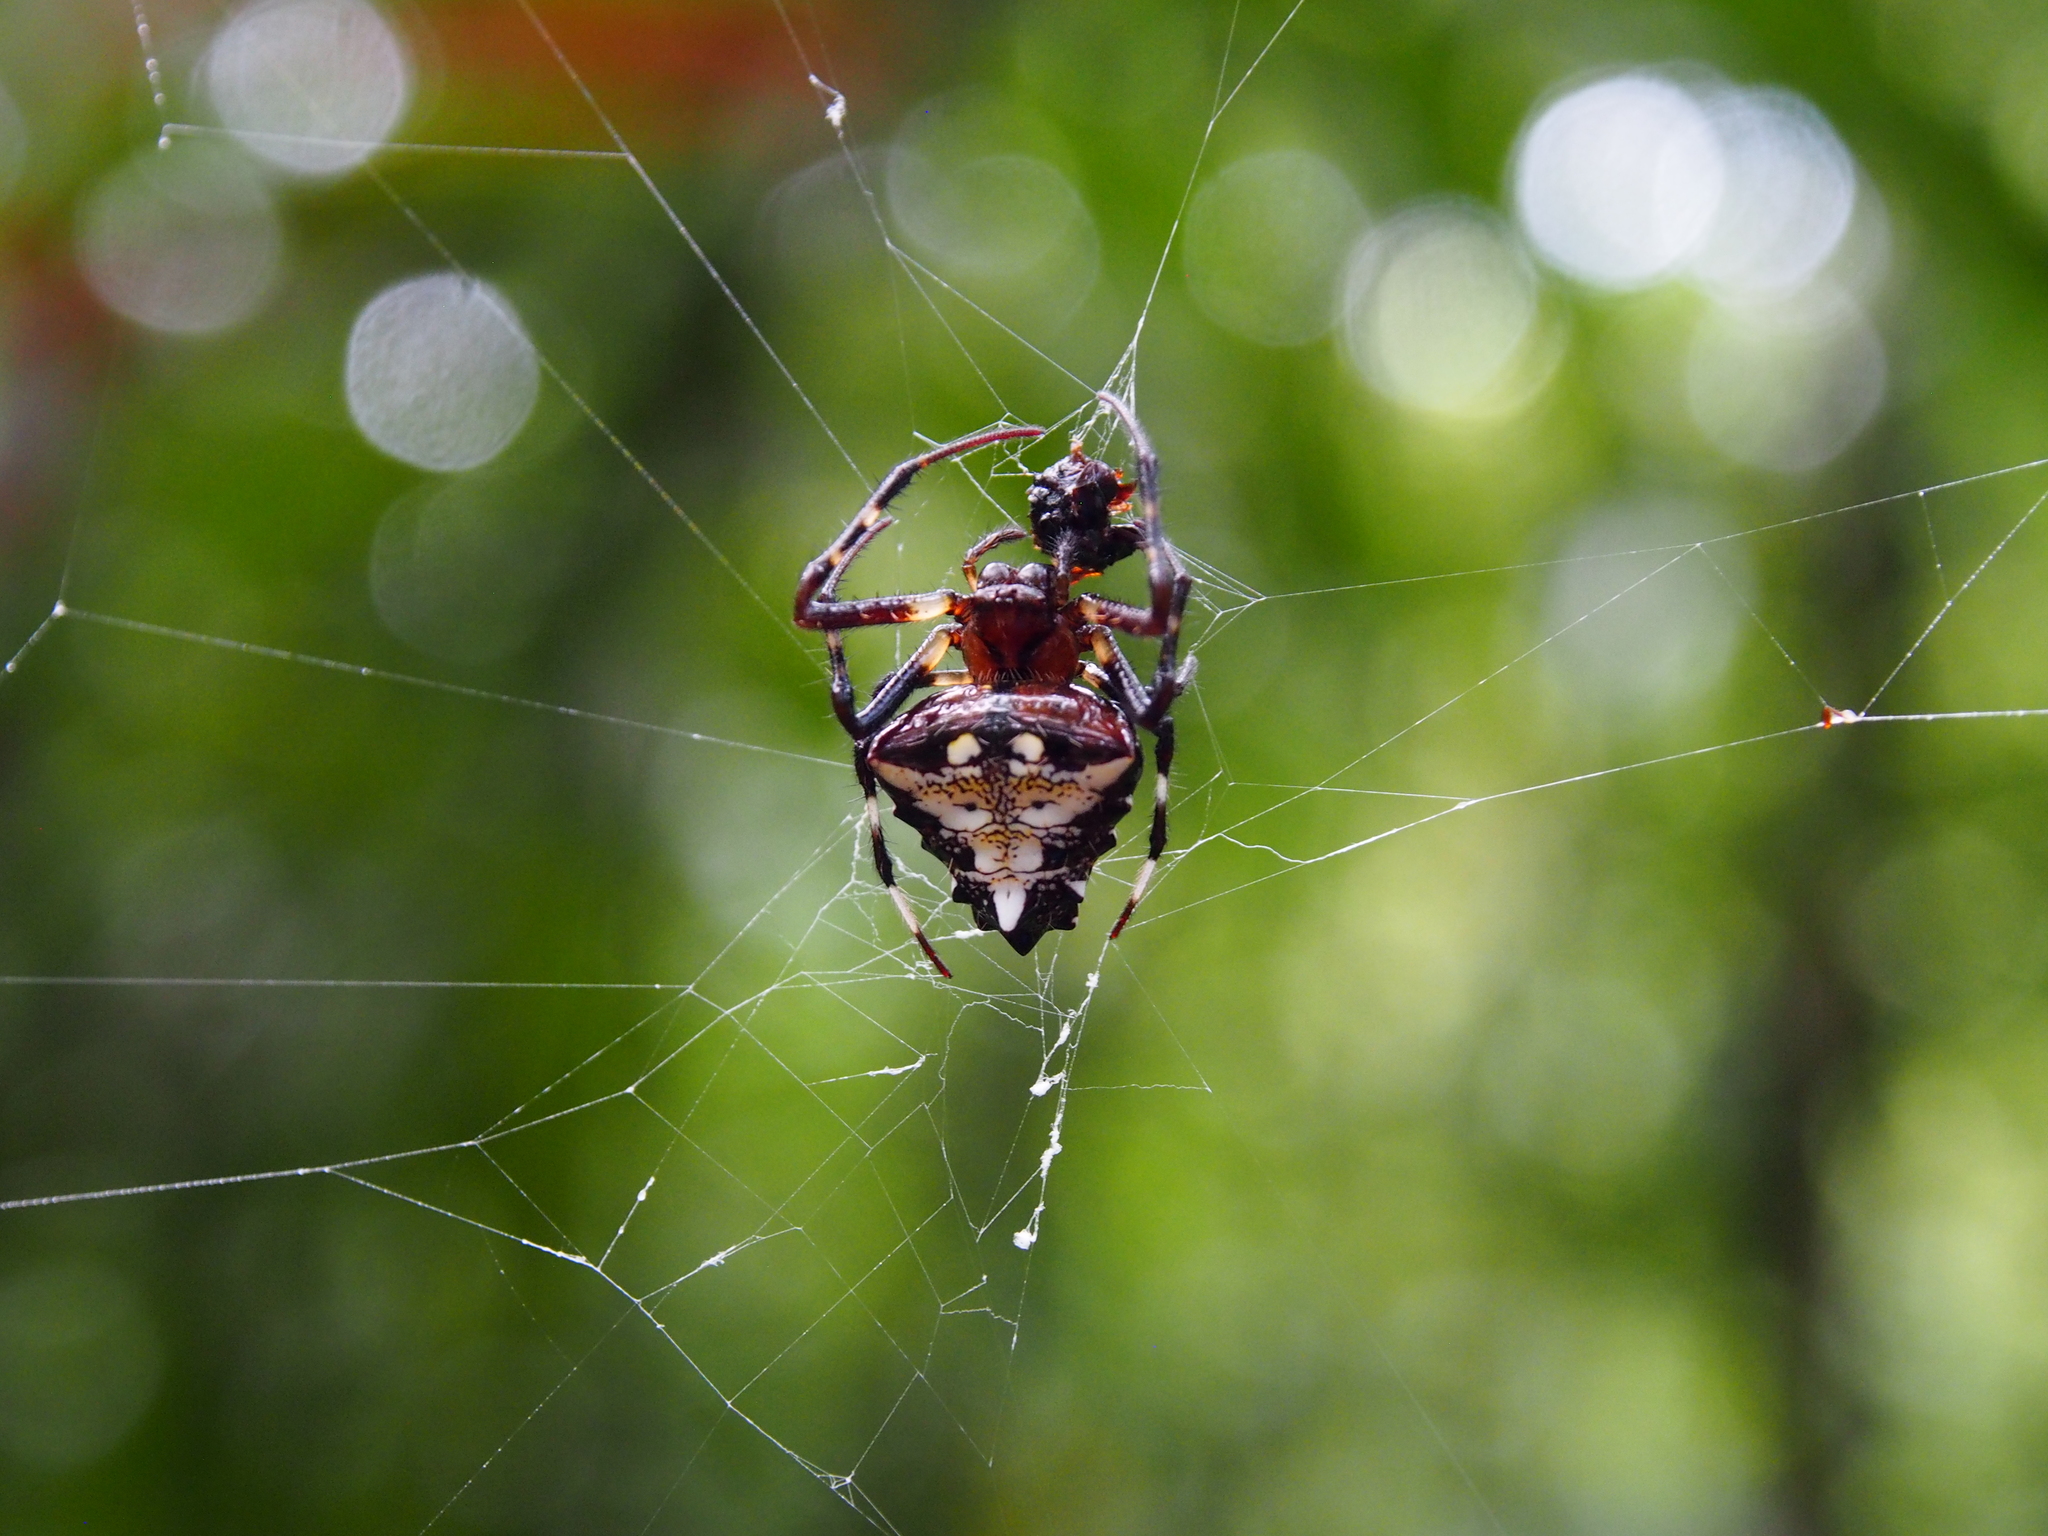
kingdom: Animalia
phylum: Arthropoda
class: Arachnida
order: Araneae
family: Araneidae
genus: Verrucosa
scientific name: Verrucosa arenata
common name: Orb weavers
